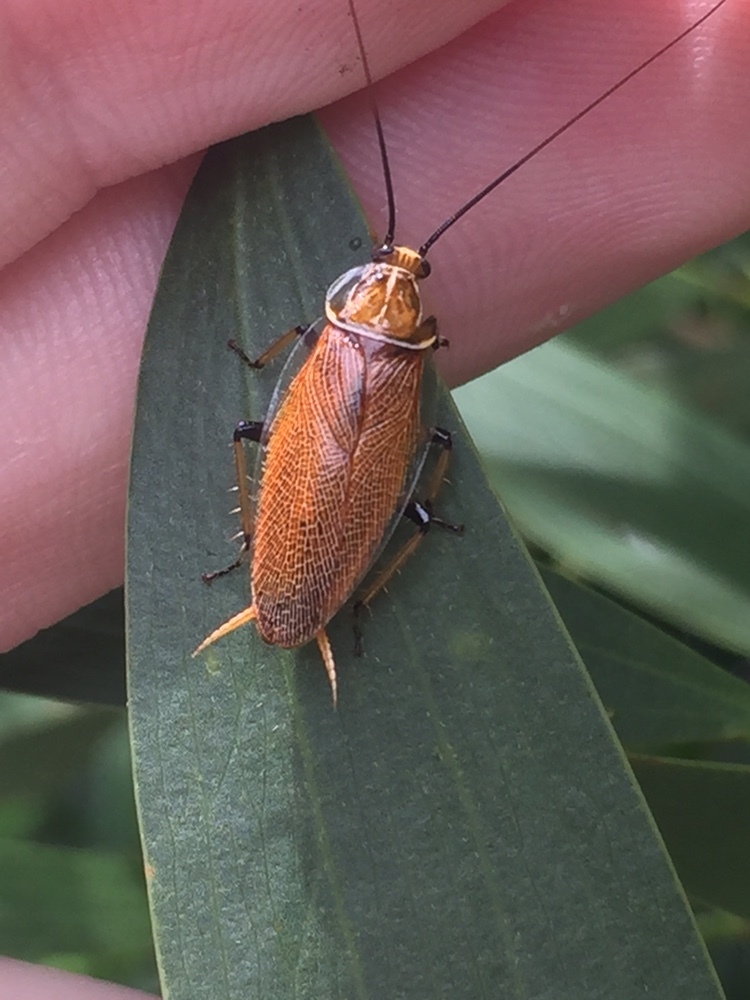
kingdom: Animalia
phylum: Arthropoda
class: Insecta
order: Blattodea
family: Ectobiidae
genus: Balta
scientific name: Balta bicolor
